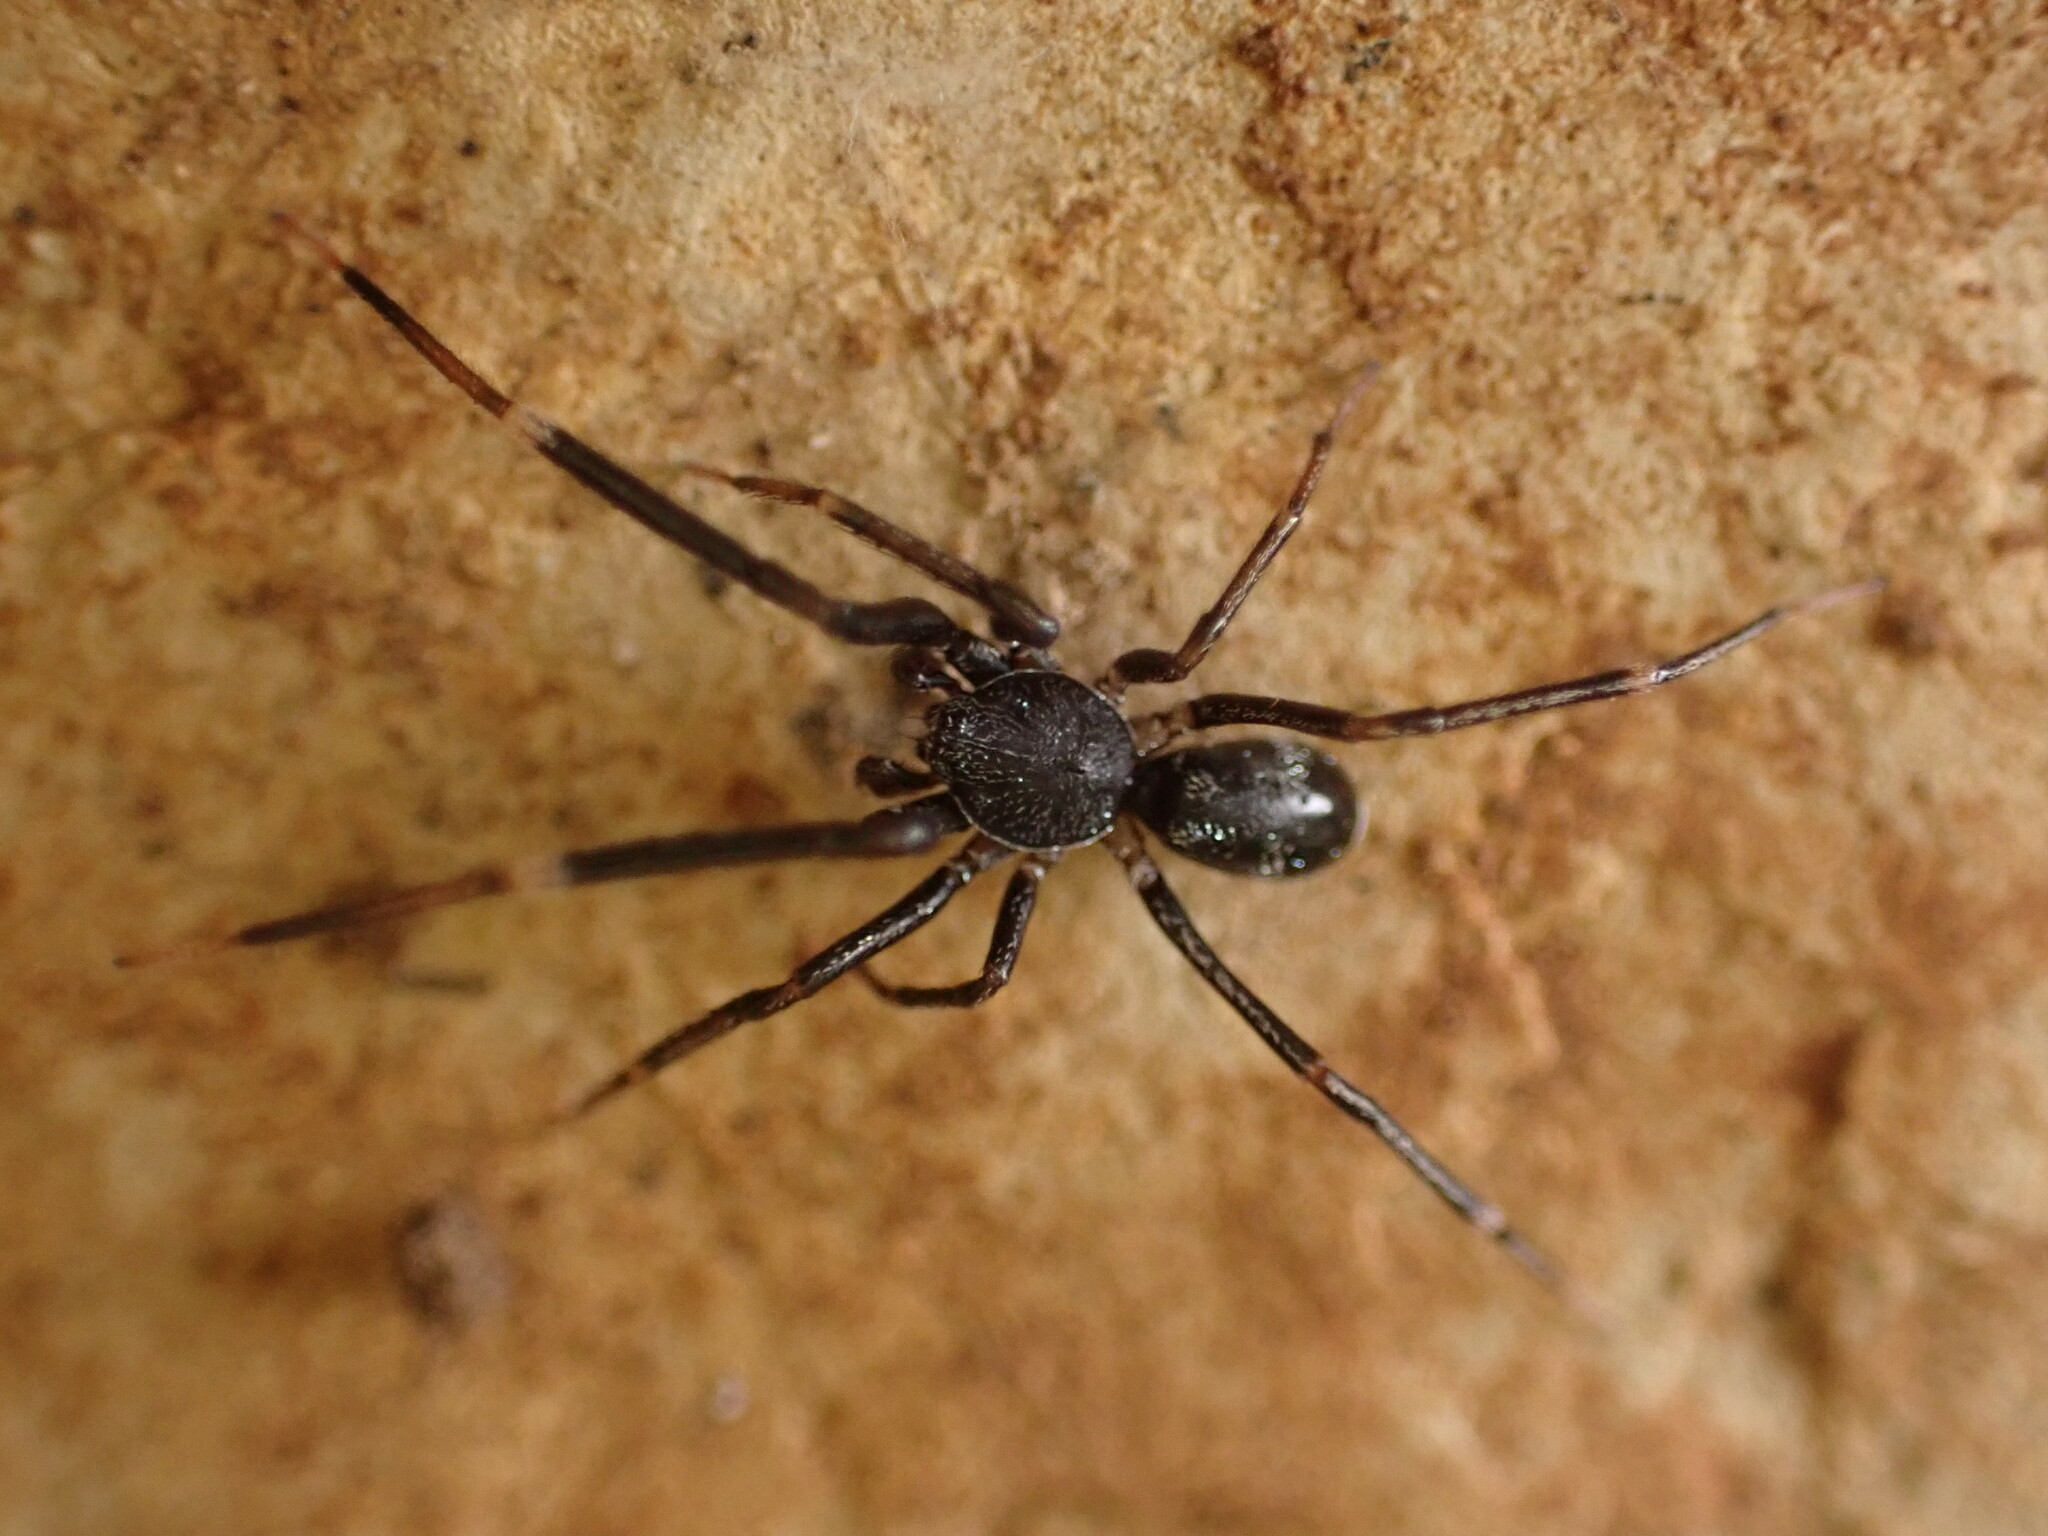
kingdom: Animalia
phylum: Arthropoda
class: Arachnida
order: Araneae
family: Phrurolithidae
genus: Liophrurillus
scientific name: Liophrurillus flavitarsis
